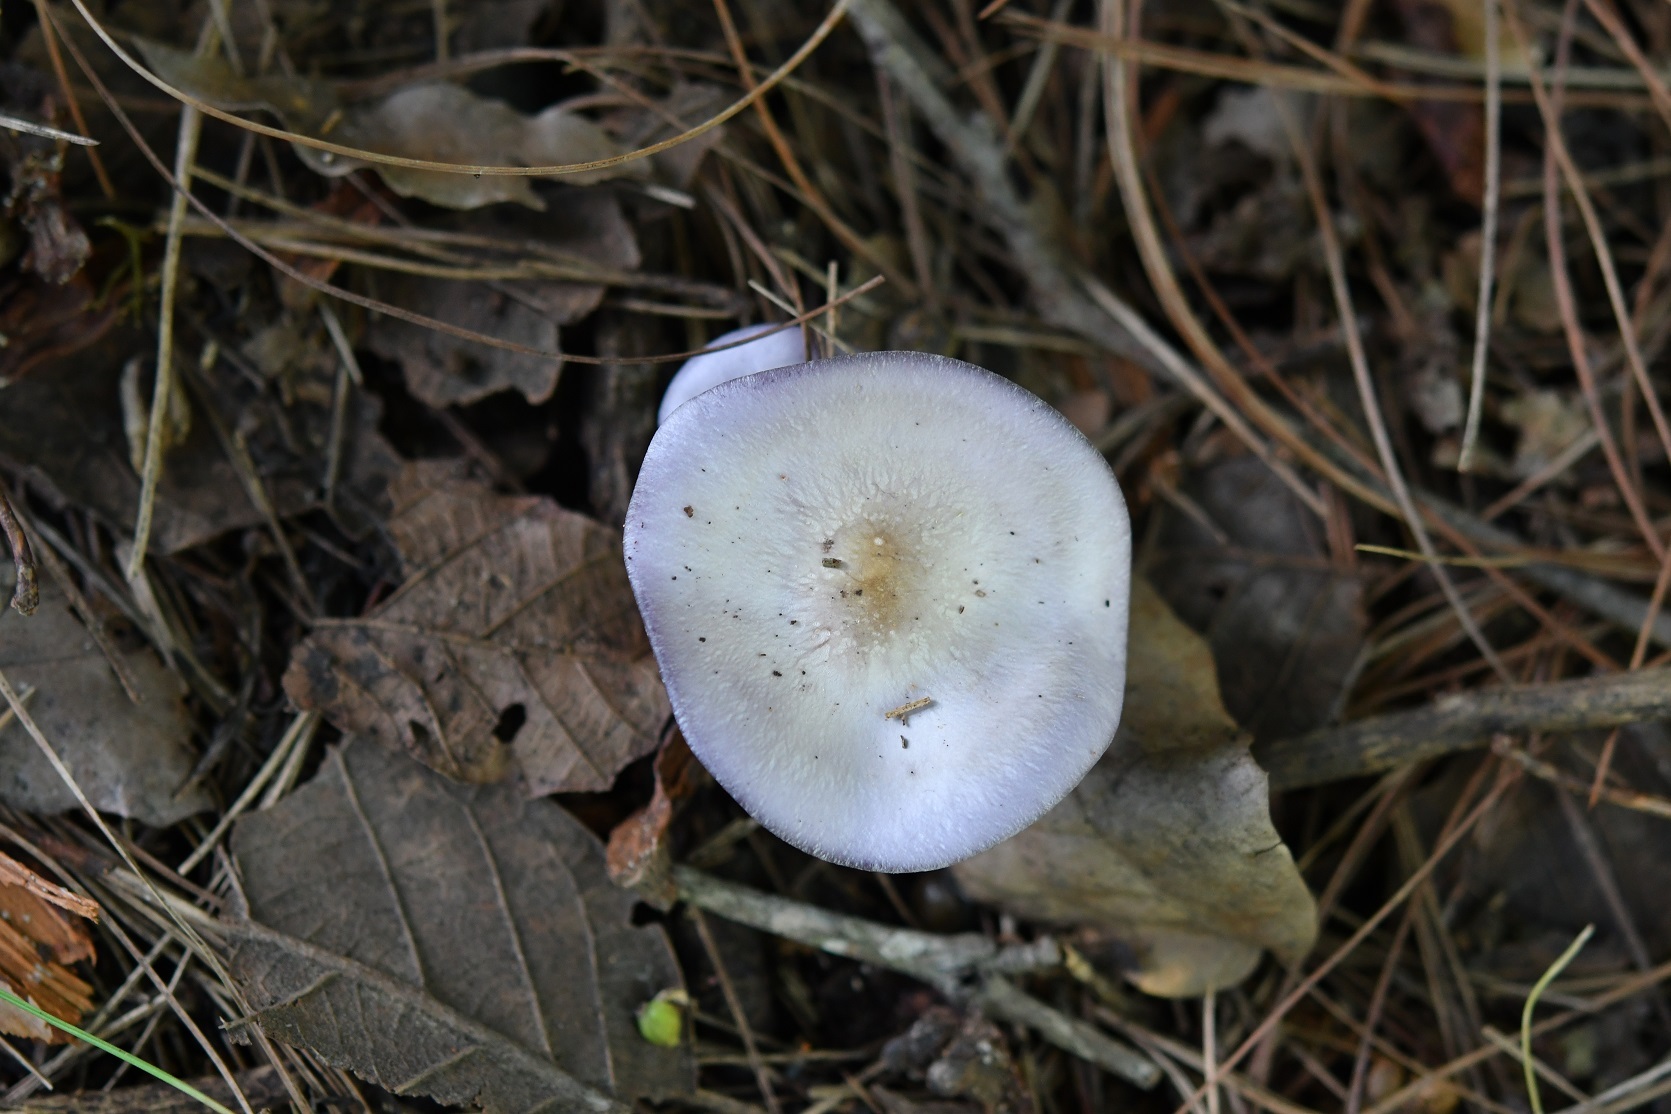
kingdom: Fungi
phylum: Basidiomycota
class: Agaricomycetes
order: Agaricales
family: Tricholomataceae
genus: Collybia
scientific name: Collybia
